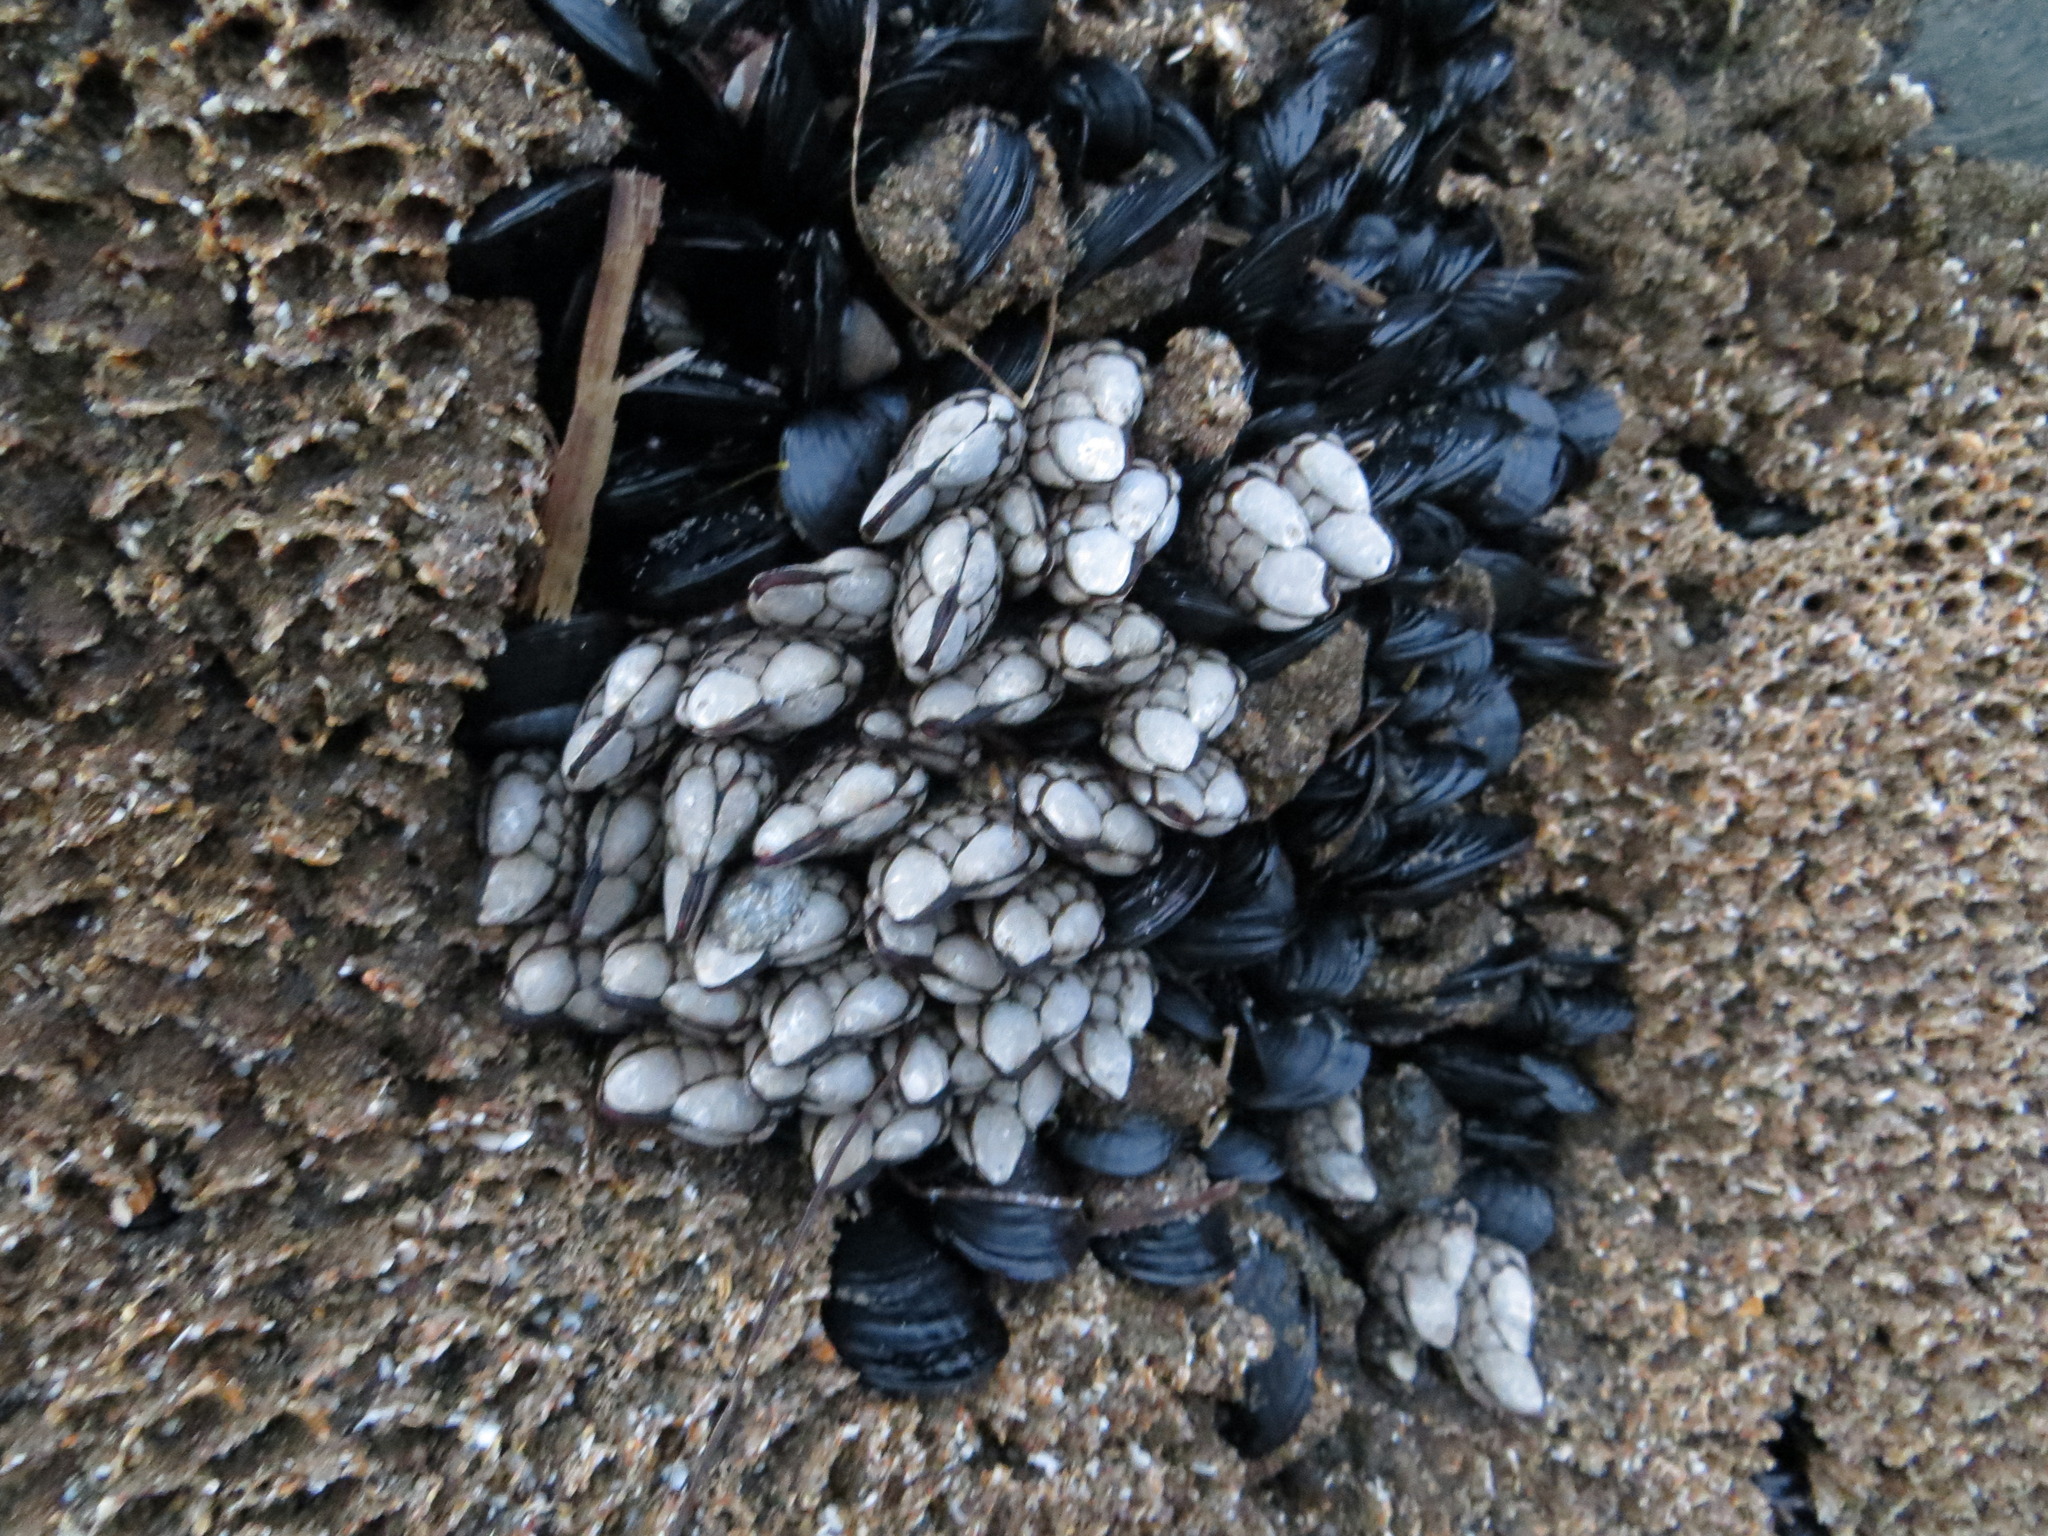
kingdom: Animalia
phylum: Arthropoda
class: Maxillopoda
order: Pedunculata
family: Pollicipedidae
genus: Pollicipes
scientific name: Pollicipes polymerus
